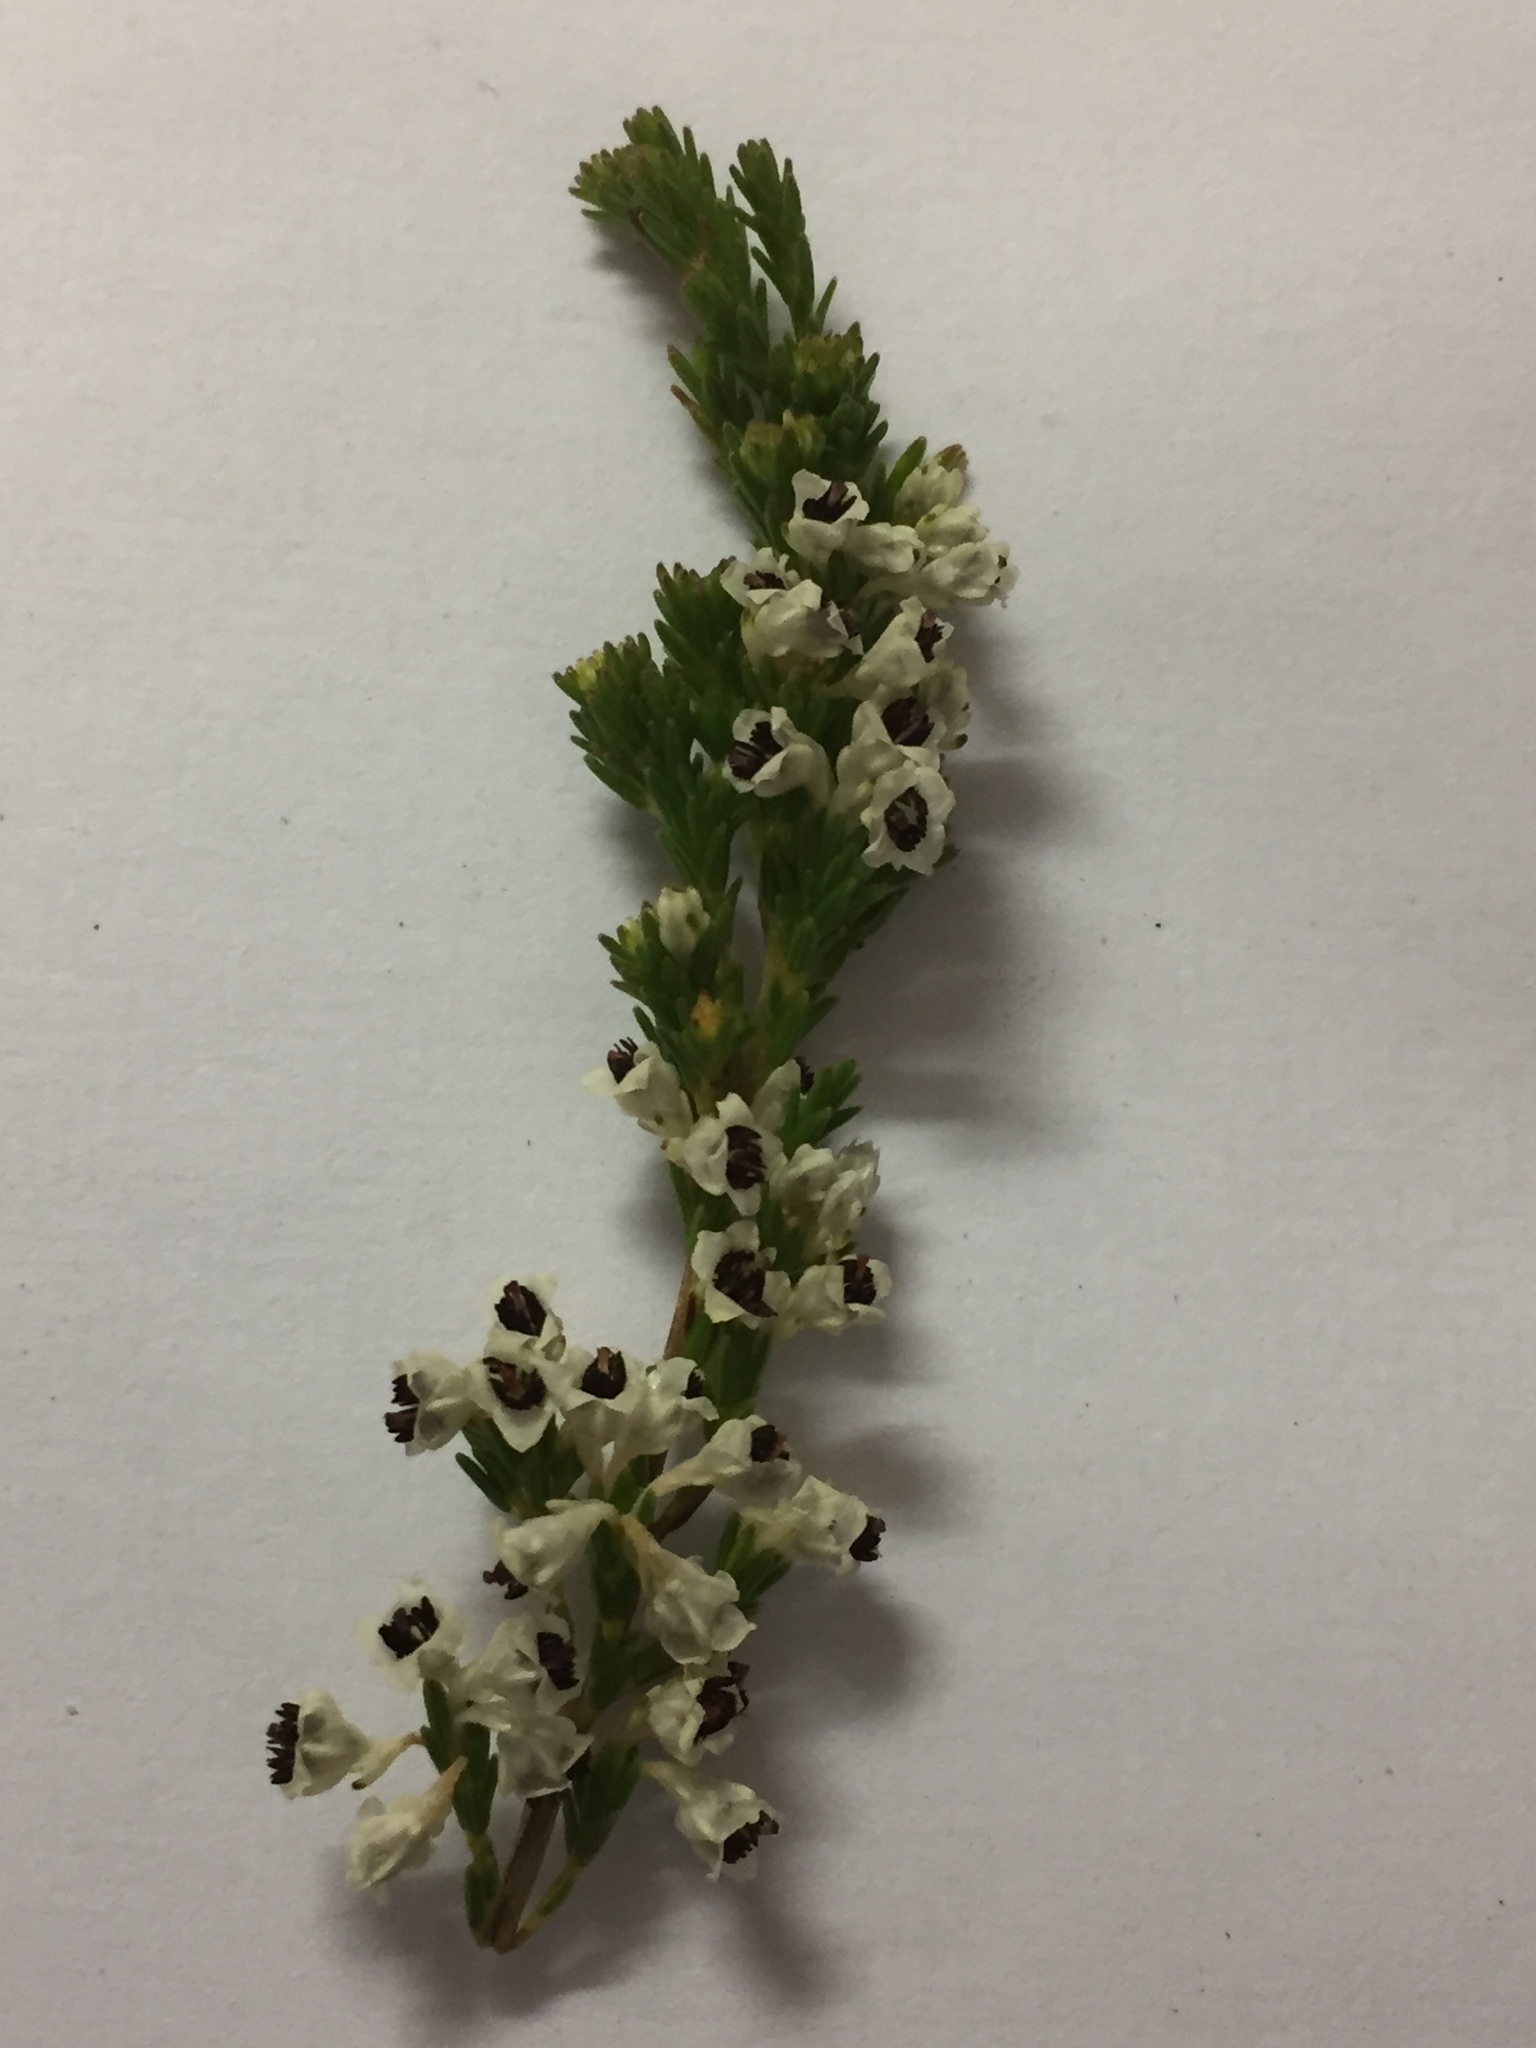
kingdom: Plantae
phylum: Tracheophyta
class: Magnoliopsida
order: Ericales
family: Ericaceae
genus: Erica
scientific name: Erica calycina
